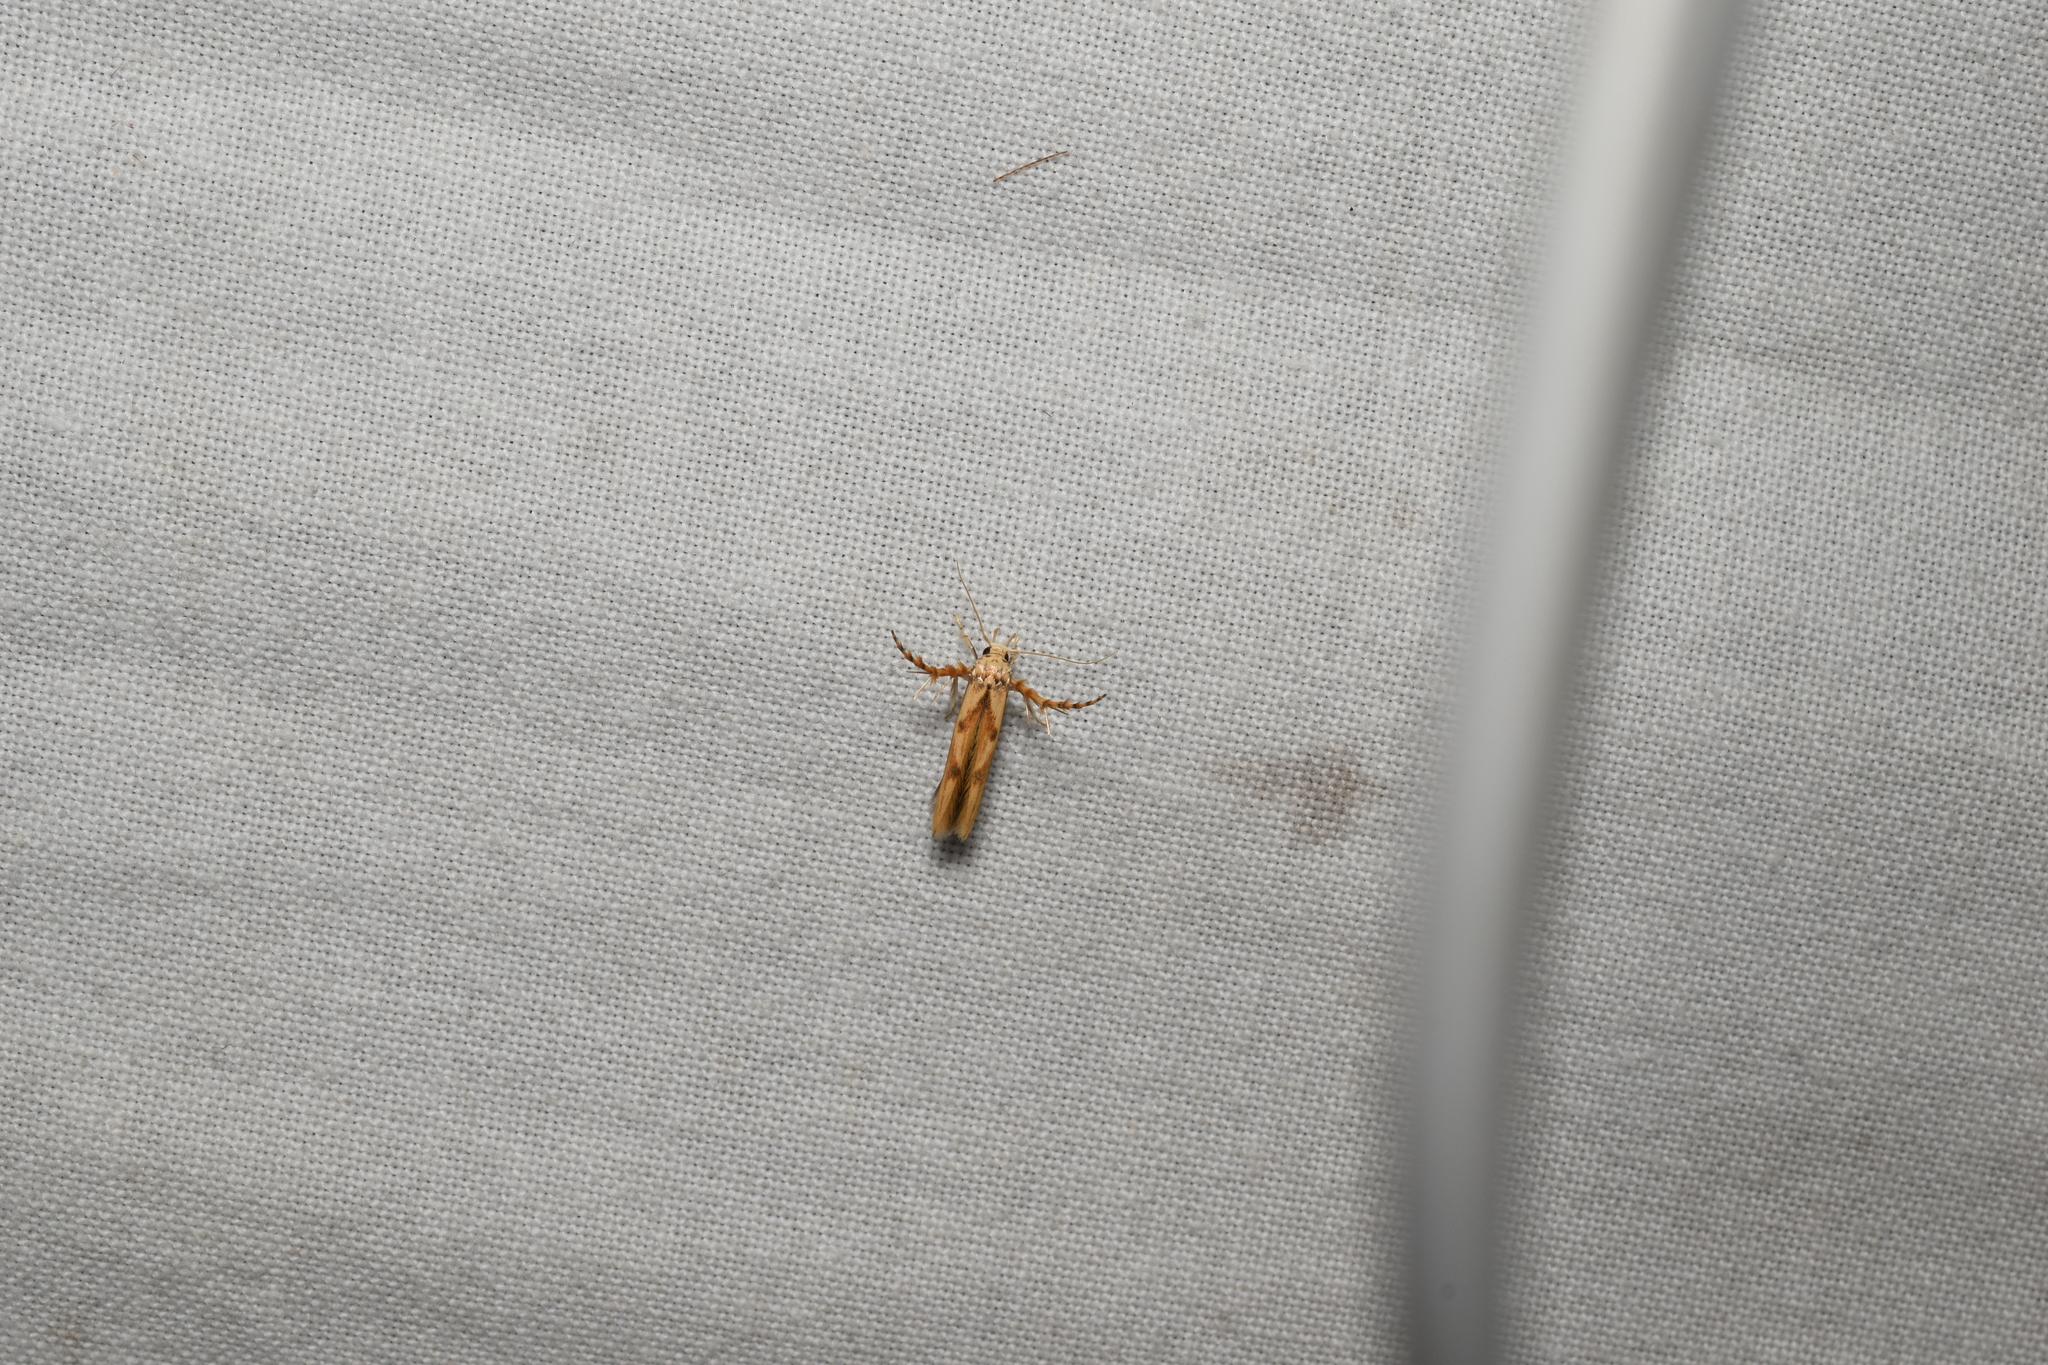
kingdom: Animalia
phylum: Arthropoda
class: Insecta
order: Lepidoptera
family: Stathmopodidae
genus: Stathmopoda
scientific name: Stathmopoda stimulata
